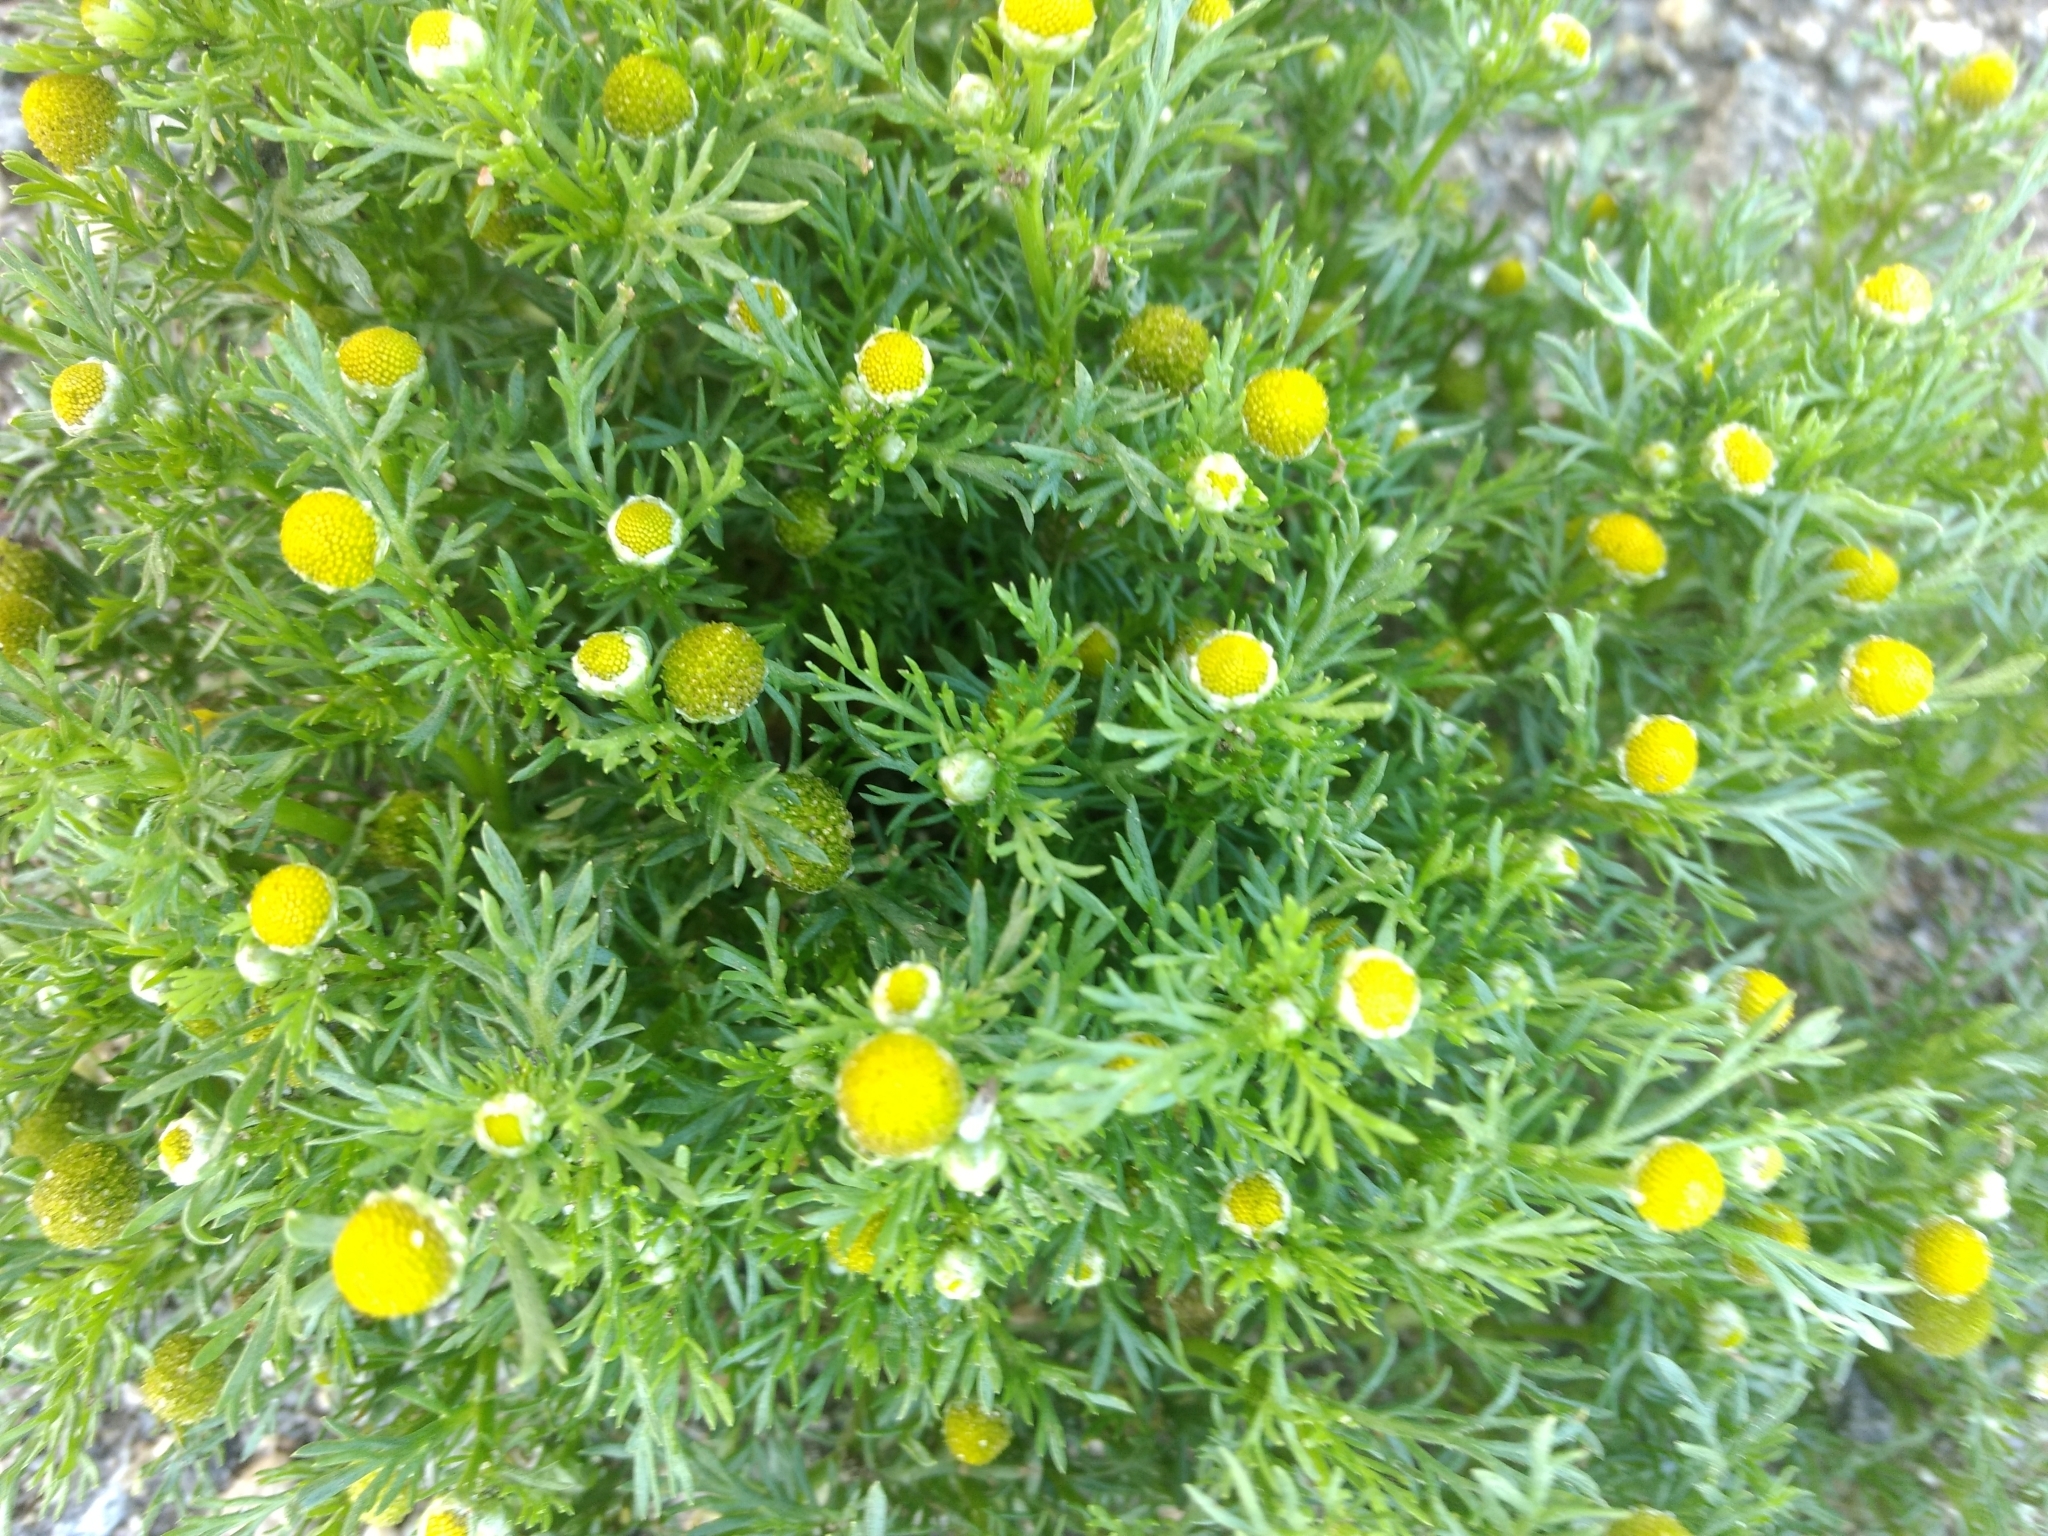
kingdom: Plantae
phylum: Tracheophyta
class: Magnoliopsida
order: Asterales
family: Asteraceae
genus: Matricaria
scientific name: Matricaria discoidea
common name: Disc mayweed
